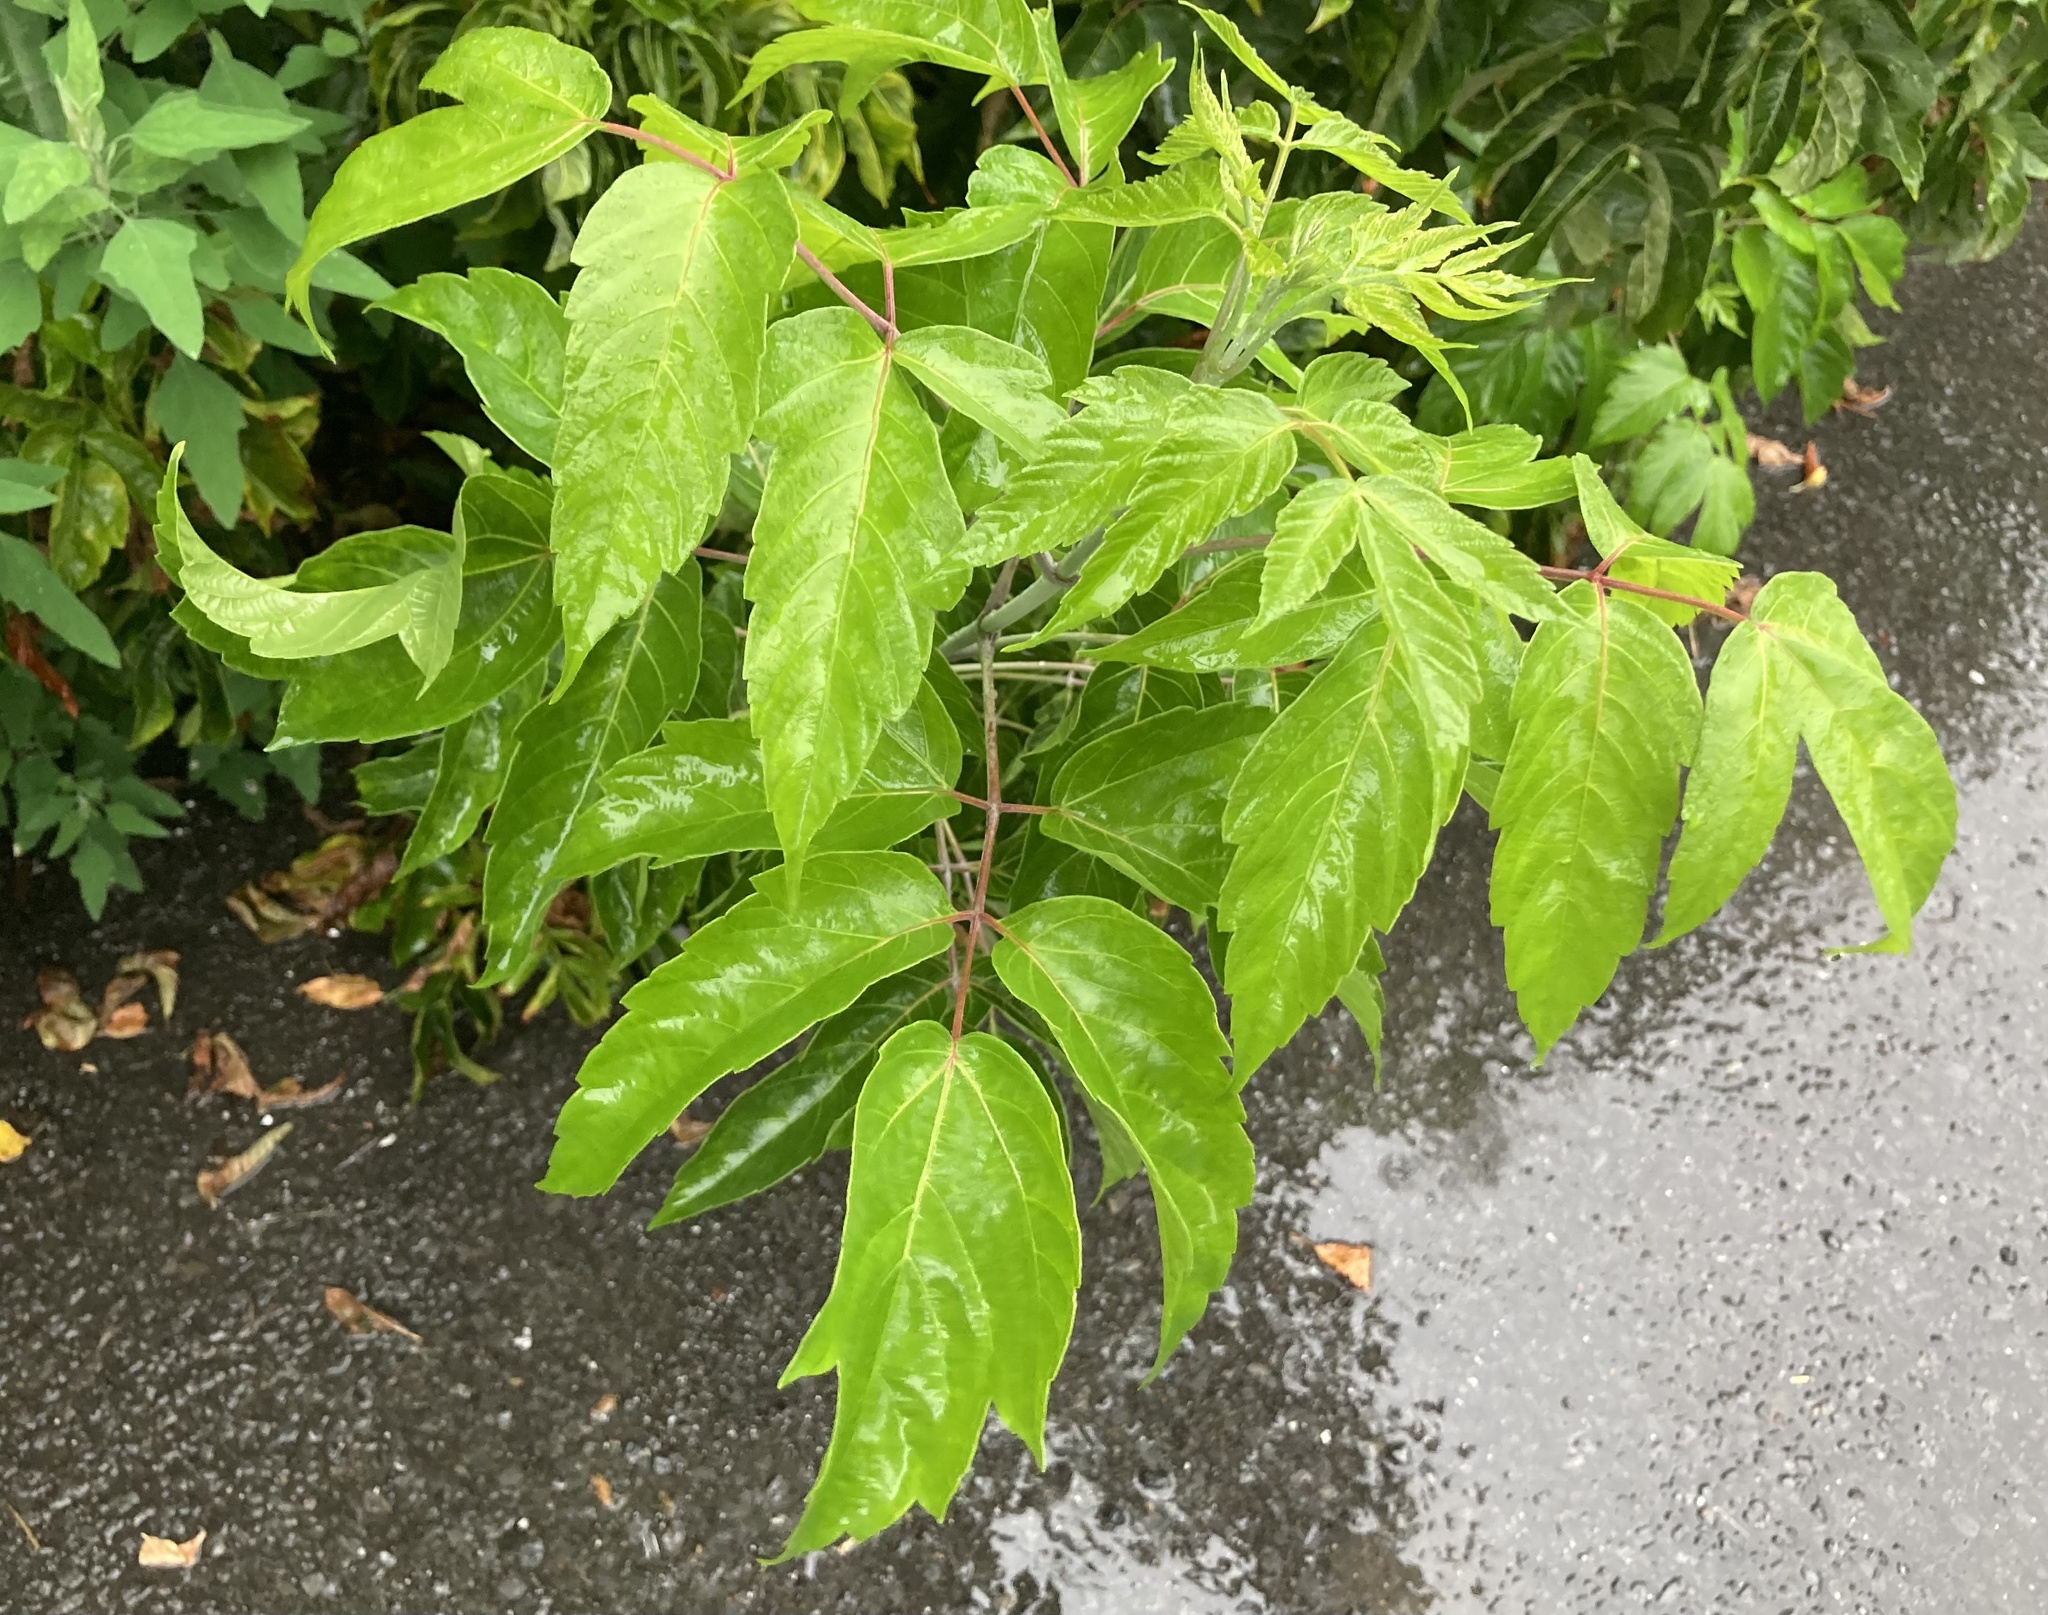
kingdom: Plantae
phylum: Tracheophyta
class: Magnoliopsida
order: Sapindales
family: Sapindaceae
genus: Acer
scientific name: Acer negundo
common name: Ashleaf maple
